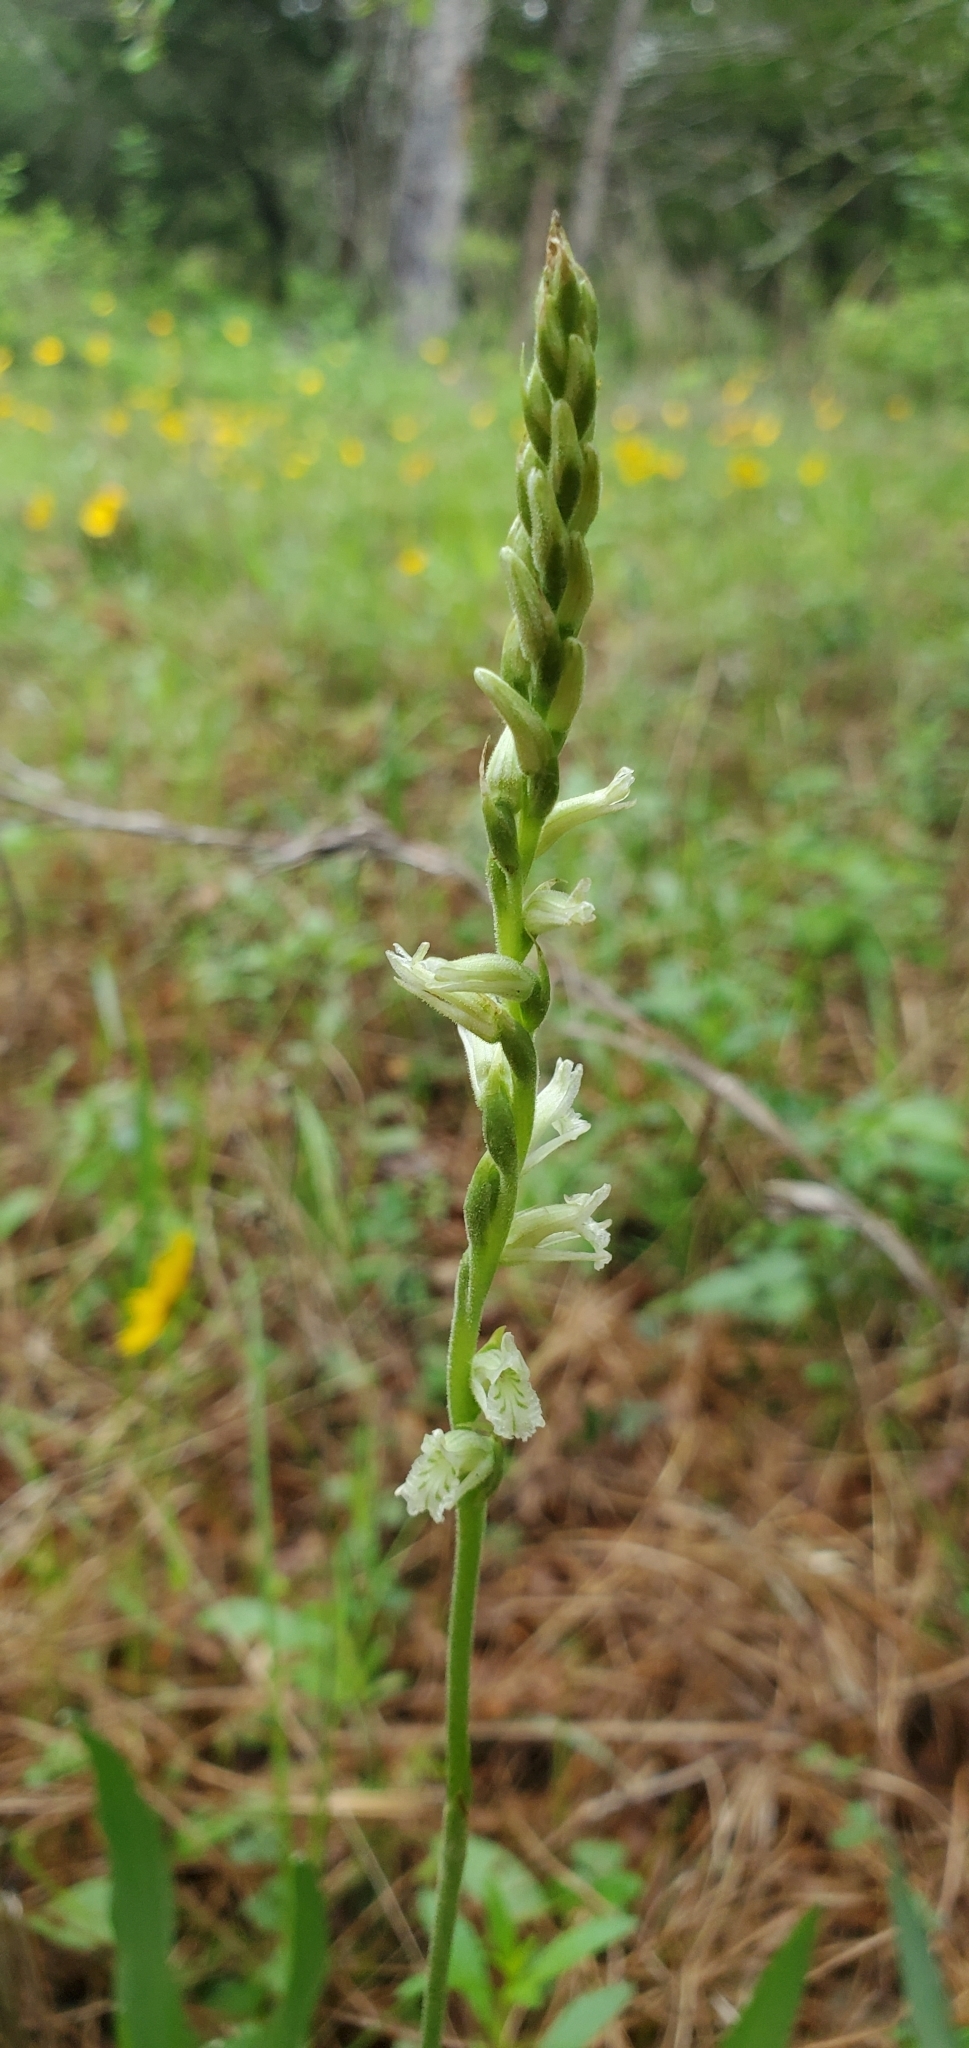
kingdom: Plantae
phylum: Tracheophyta
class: Liliopsida
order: Asparagales
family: Orchidaceae
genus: Spiranthes
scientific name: Spiranthes praecox
